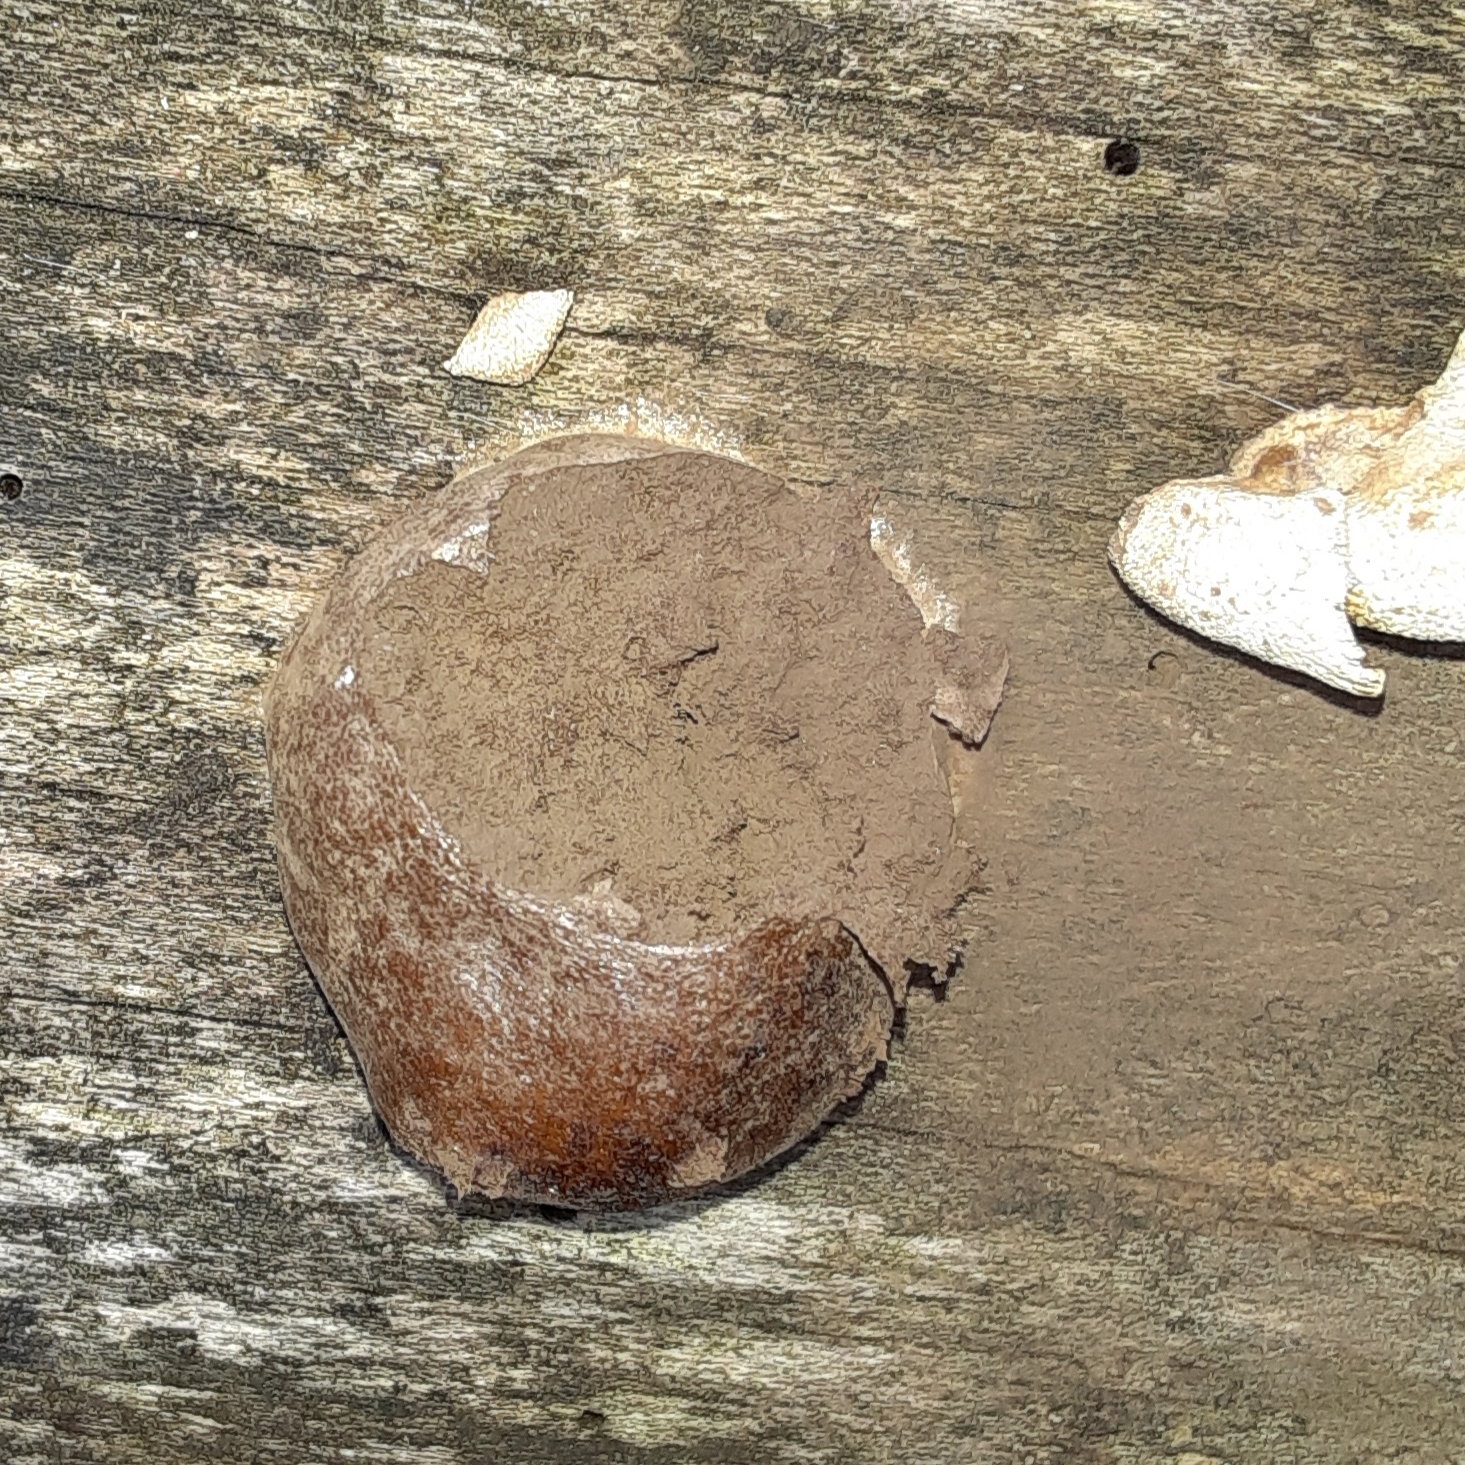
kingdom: Protozoa
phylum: Mycetozoa
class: Myxomycetes
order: Cribrariales
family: Tubiferaceae
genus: Reticularia
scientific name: Reticularia splendens
